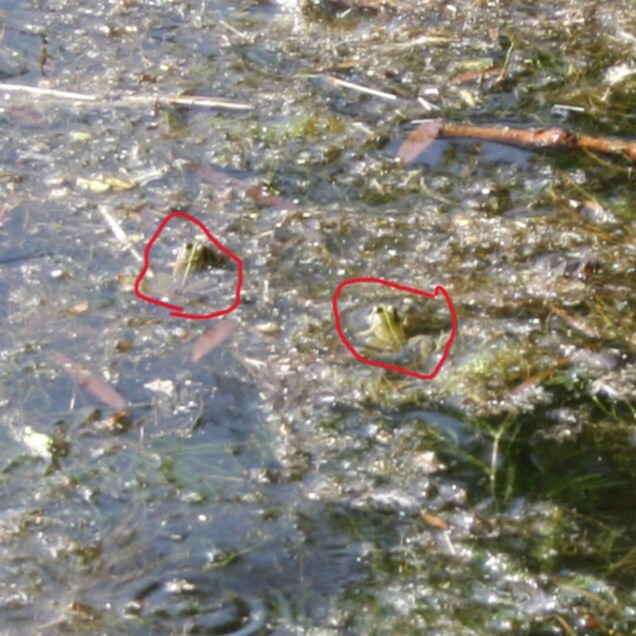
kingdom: Animalia
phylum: Chordata
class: Amphibia
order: Anura
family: Ranidae
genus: Pelophylax
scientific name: Pelophylax ridibundus
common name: Marsh frog
